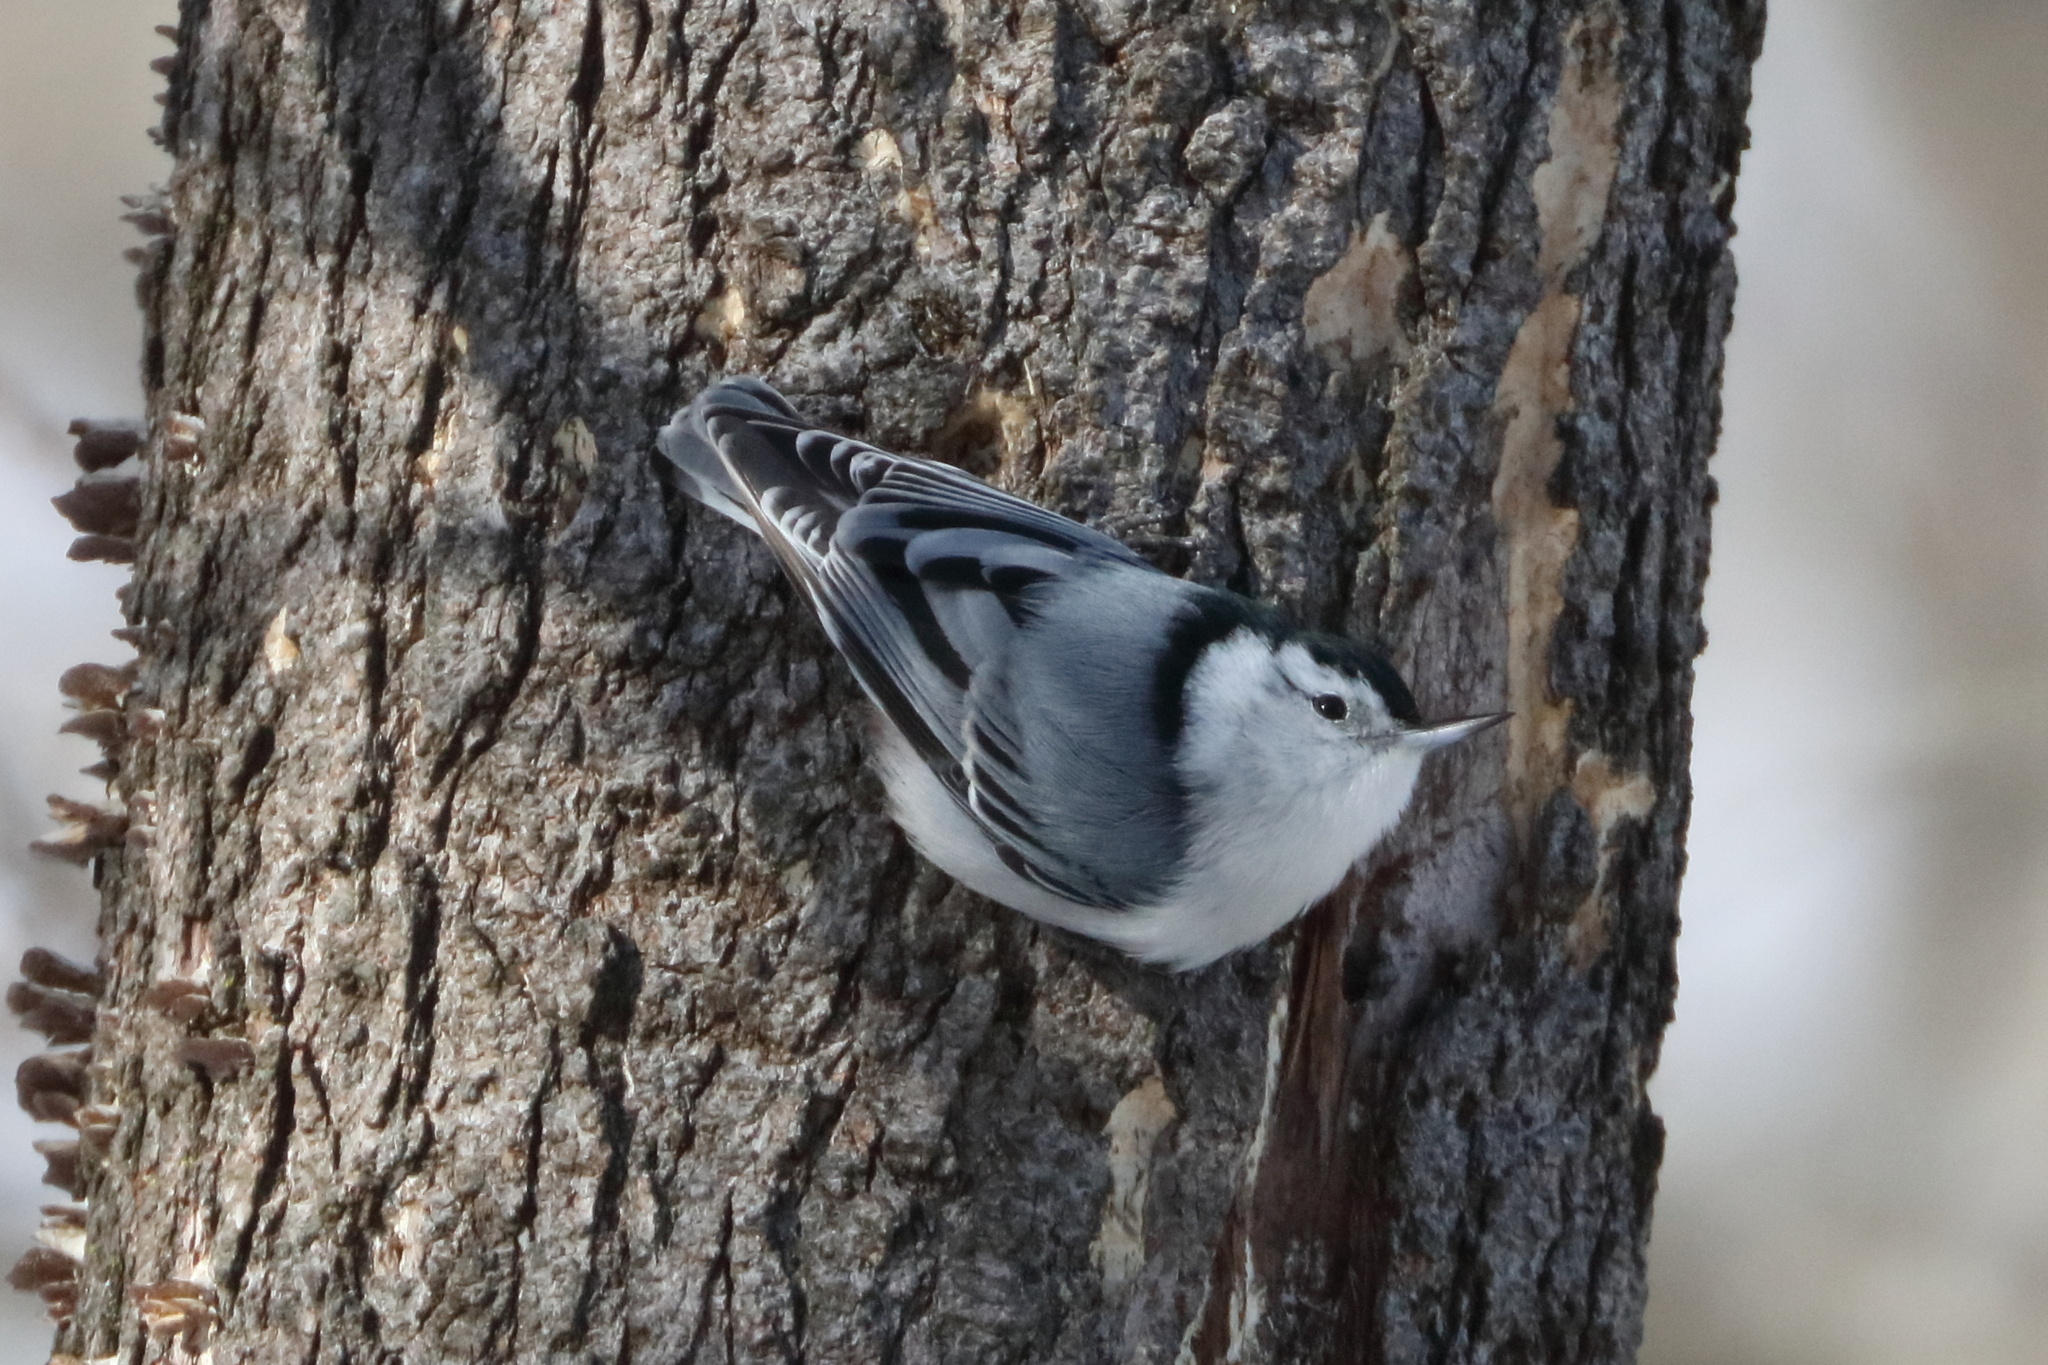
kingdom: Animalia
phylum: Chordata
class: Aves
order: Passeriformes
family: Sittidae
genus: Sitta
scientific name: Sitta carolinensis
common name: White-breasted nuthatch
